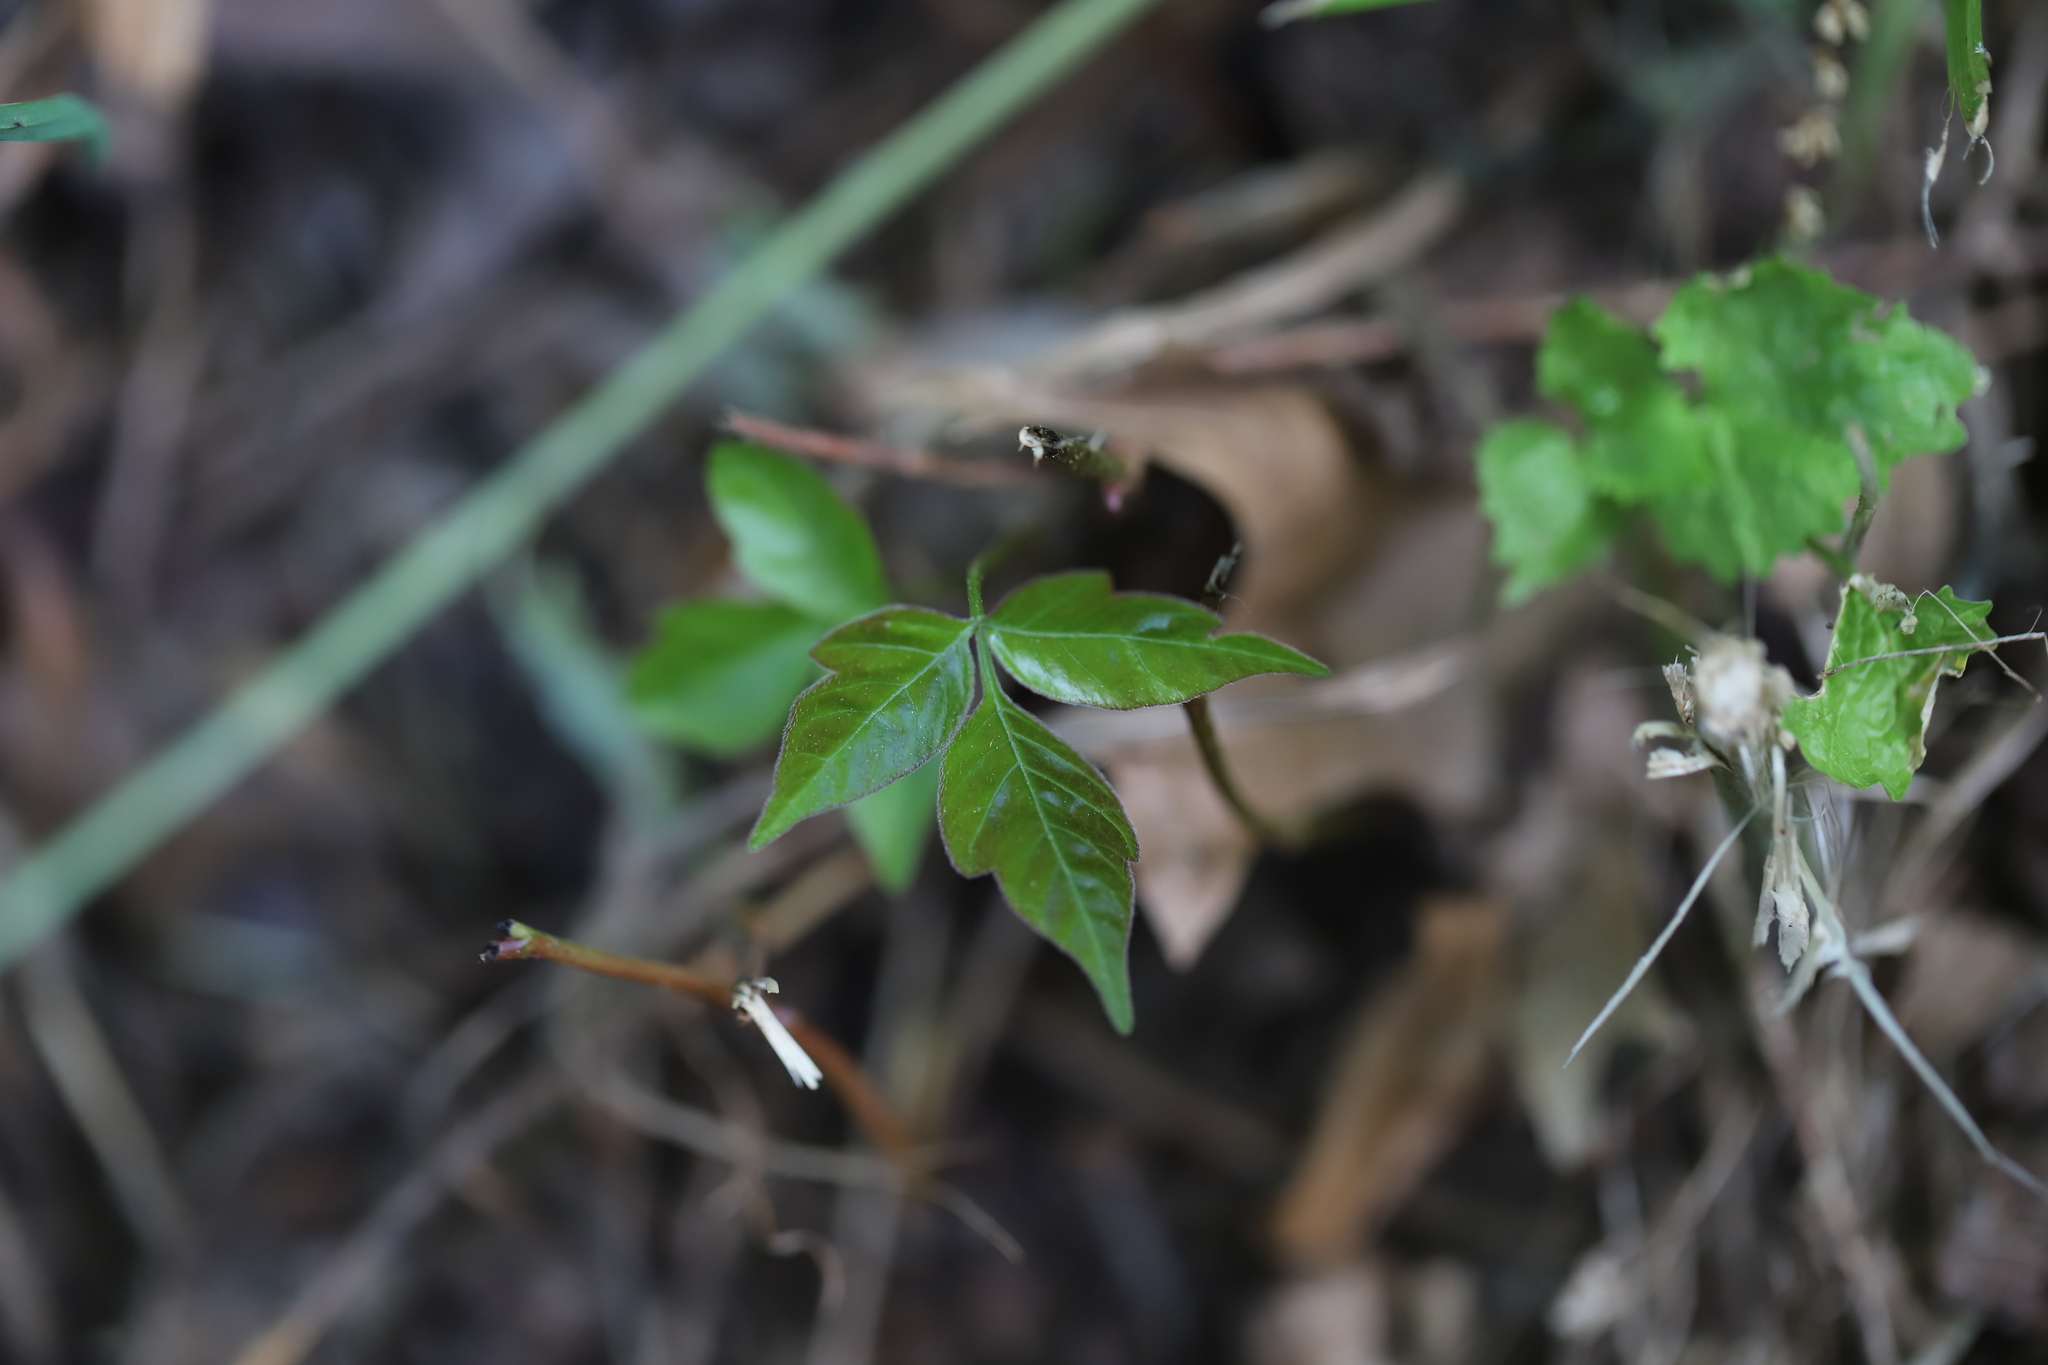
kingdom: Plantae
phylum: Tracheophyta
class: Magnoliopsida
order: Sapindales
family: Anacardiaceae
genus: Toxicodendron
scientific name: Toxicodendron radicans
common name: Poison ivy
